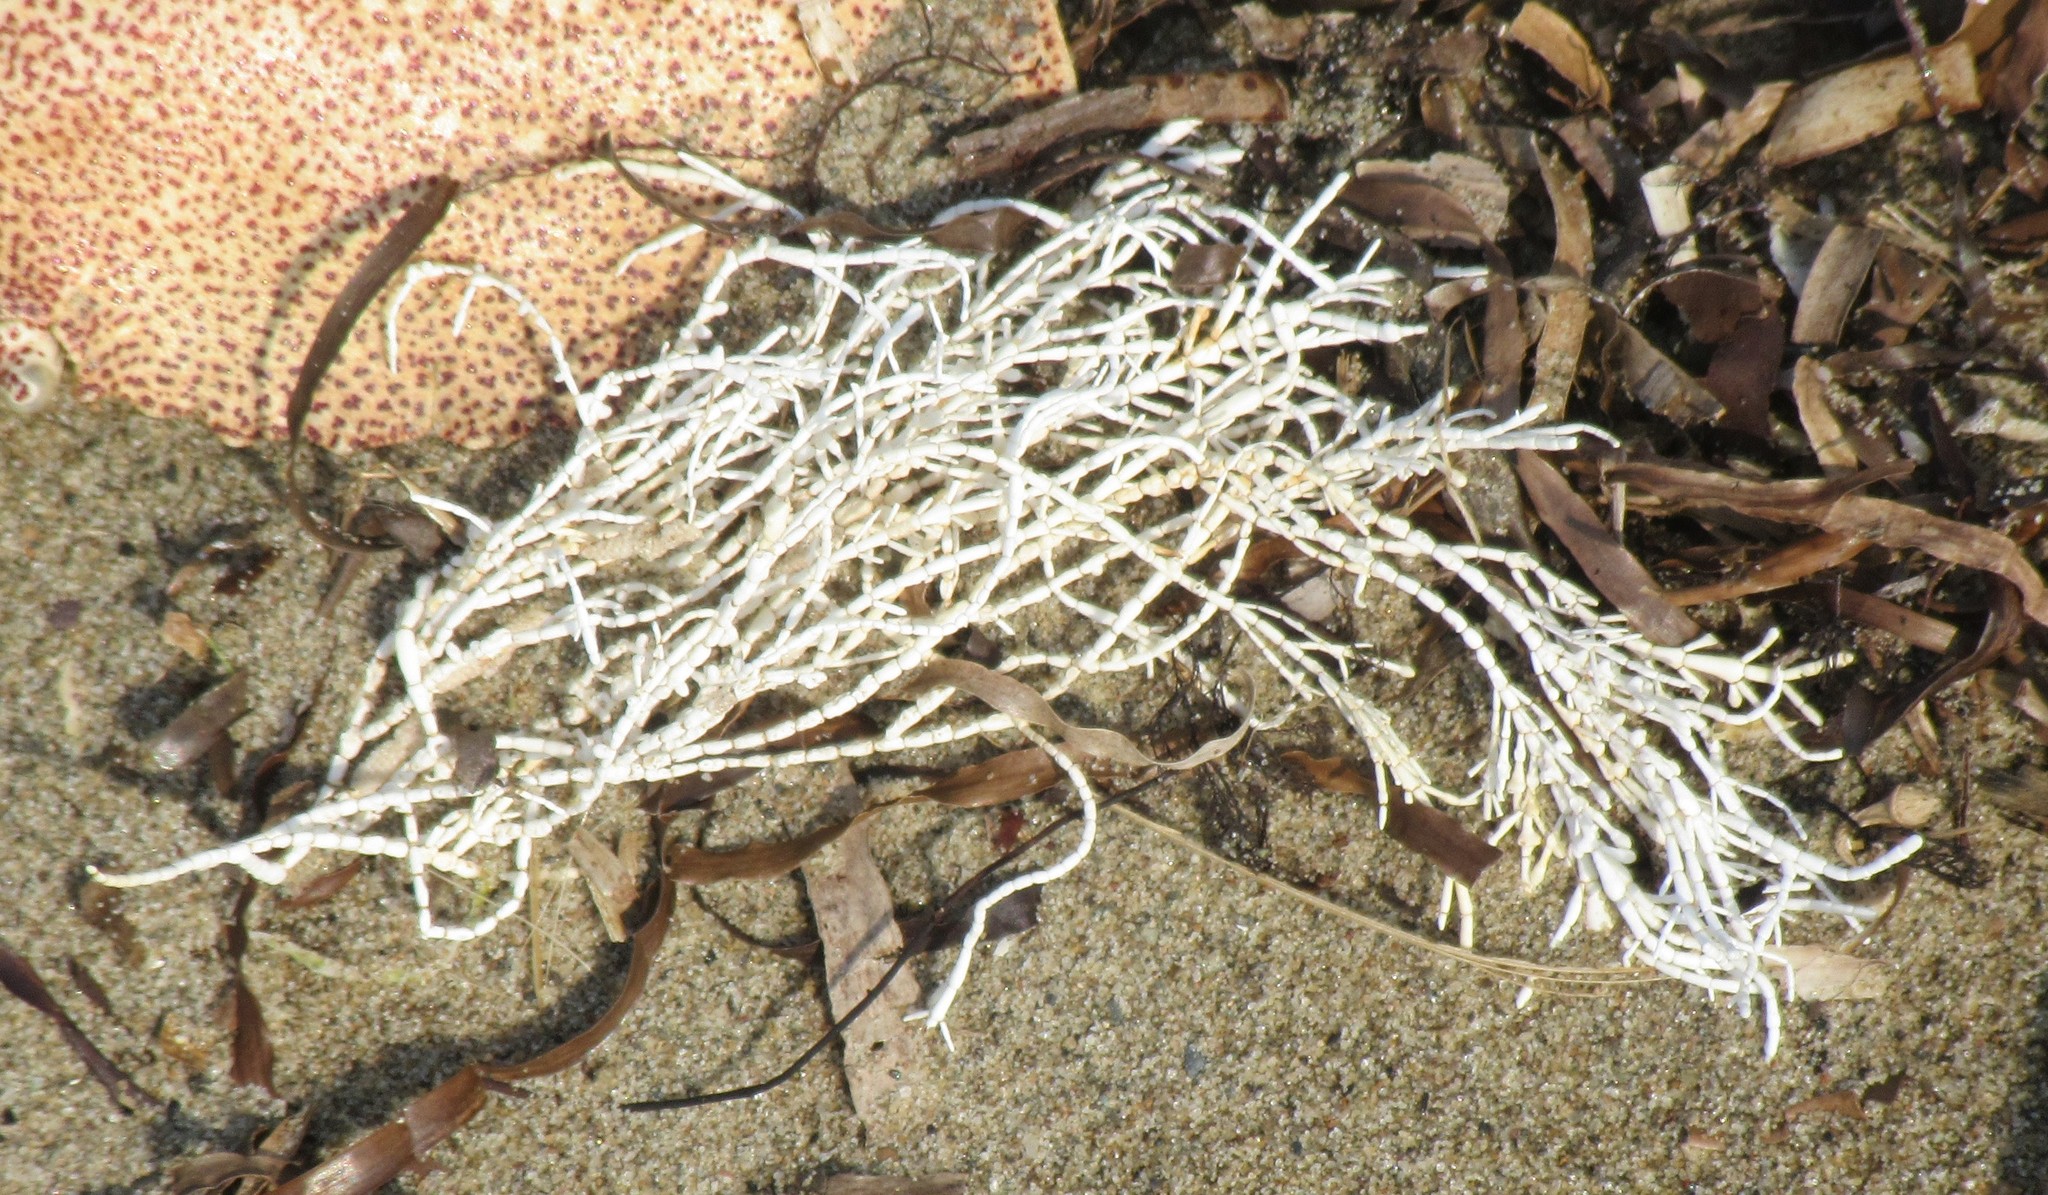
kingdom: Plantae
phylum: Rhodophyta
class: Florideophyceae
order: Corallinales
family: Corallinaceae
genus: Corallina
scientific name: Corallina officinalis
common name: Coral weed
